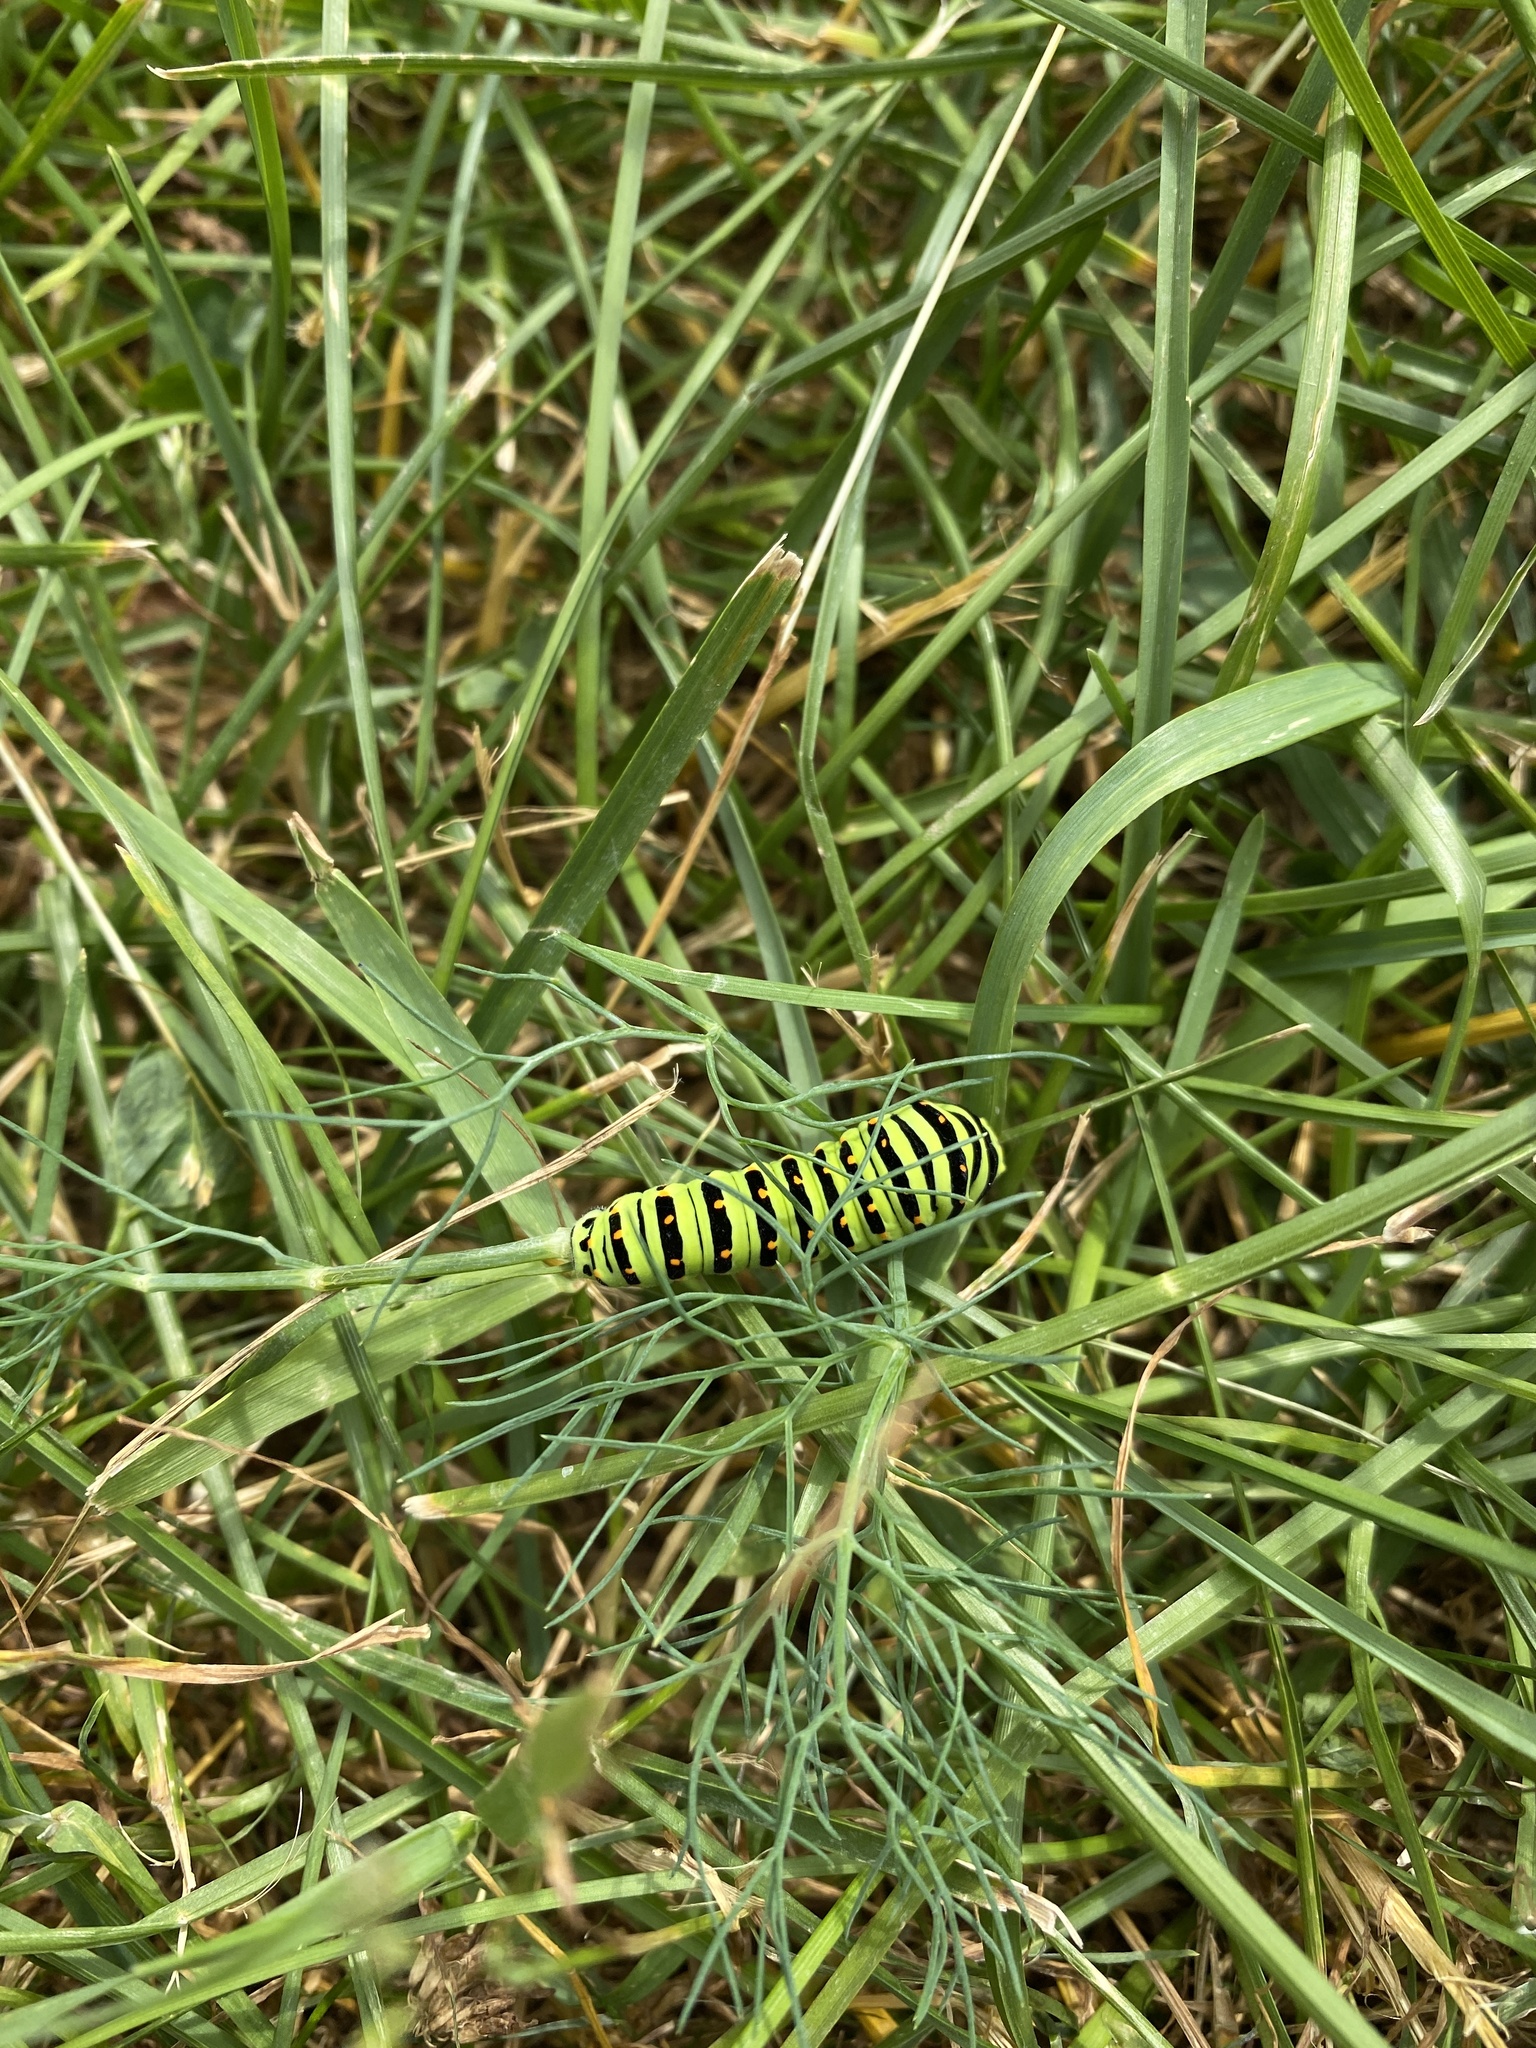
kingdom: Animalia
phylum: Arthropoda
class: Insecta
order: Lepidoptera
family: Papilionidae
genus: Papilio
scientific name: Papilio machaon
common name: Swallowtail
